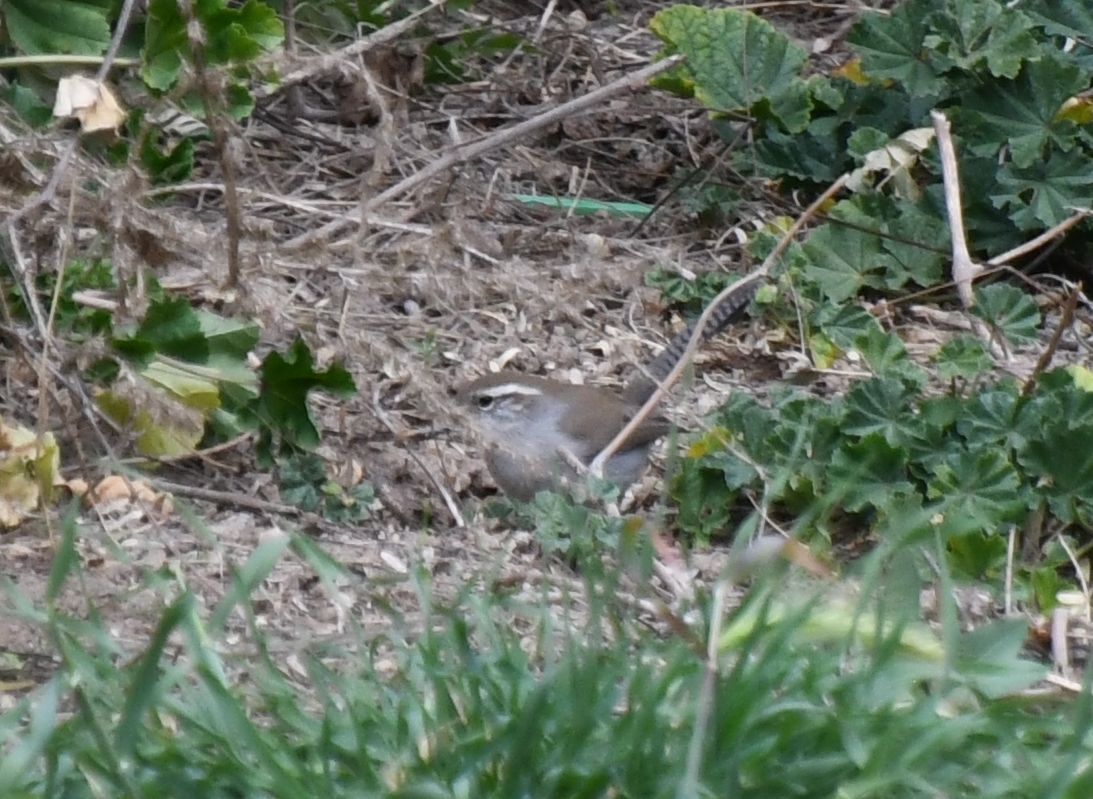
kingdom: Animalia
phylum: Chordata
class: Aves
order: Passeriformes
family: Troglodytidae
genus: Thryomanes
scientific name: Thryomanes bewickii
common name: Bewick's wren
